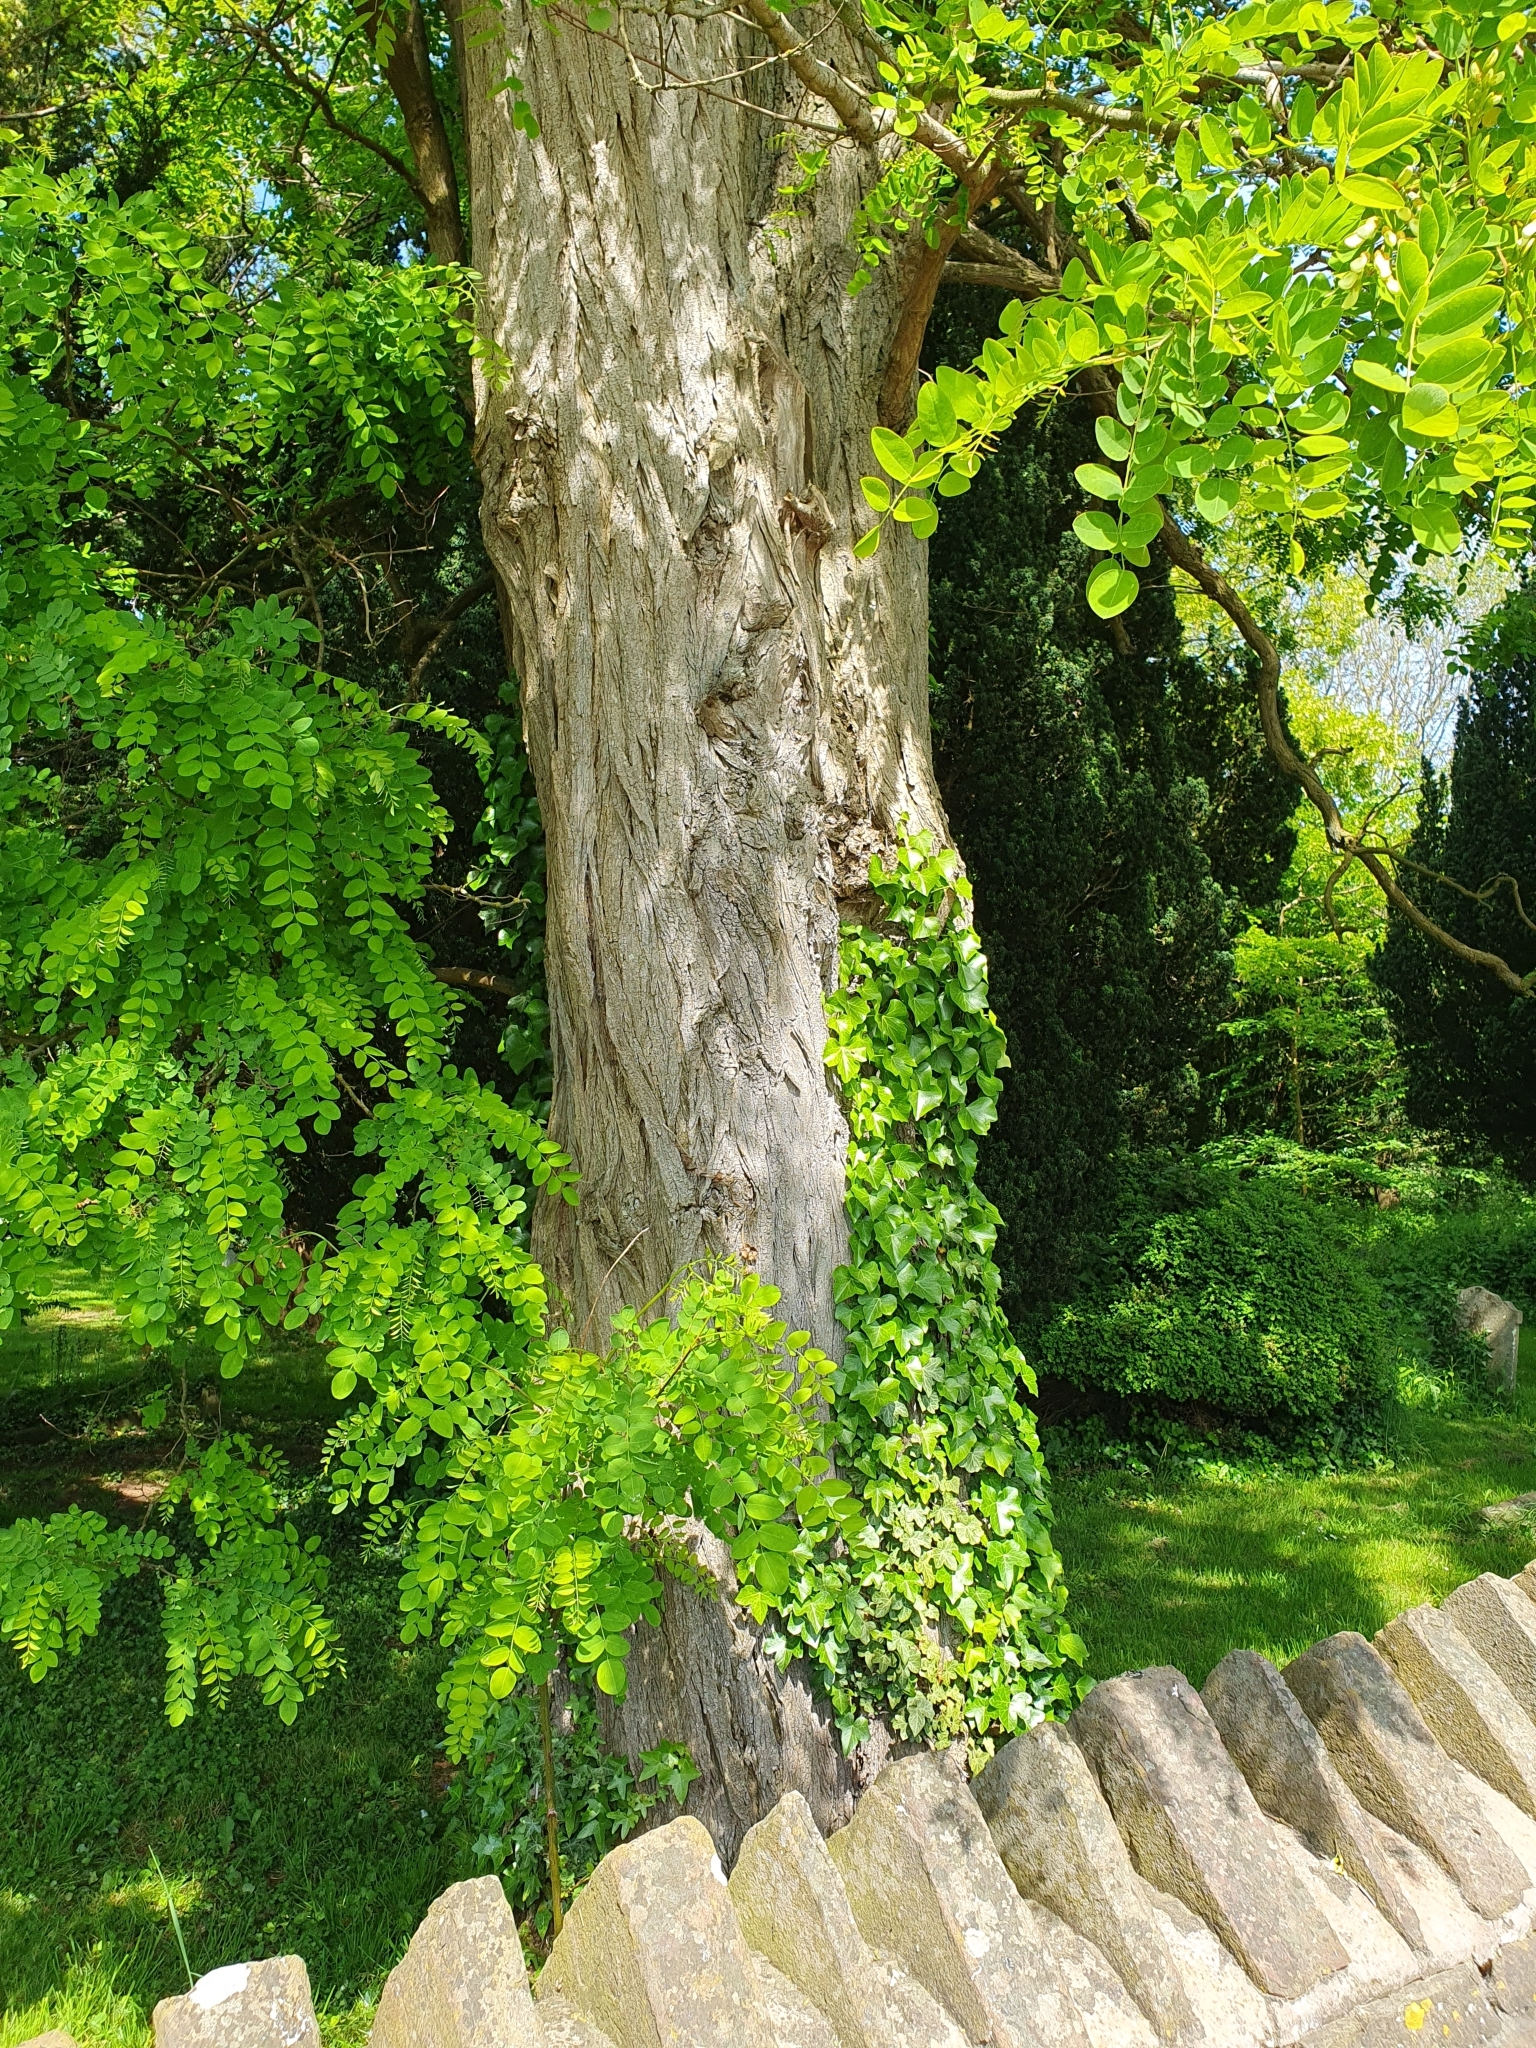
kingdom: Plantae
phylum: Tracheophyta
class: Magnoliopsida
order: Fabales
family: Fabaceae
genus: Robinia
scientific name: Robinia pseudoacacia
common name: Black locust
